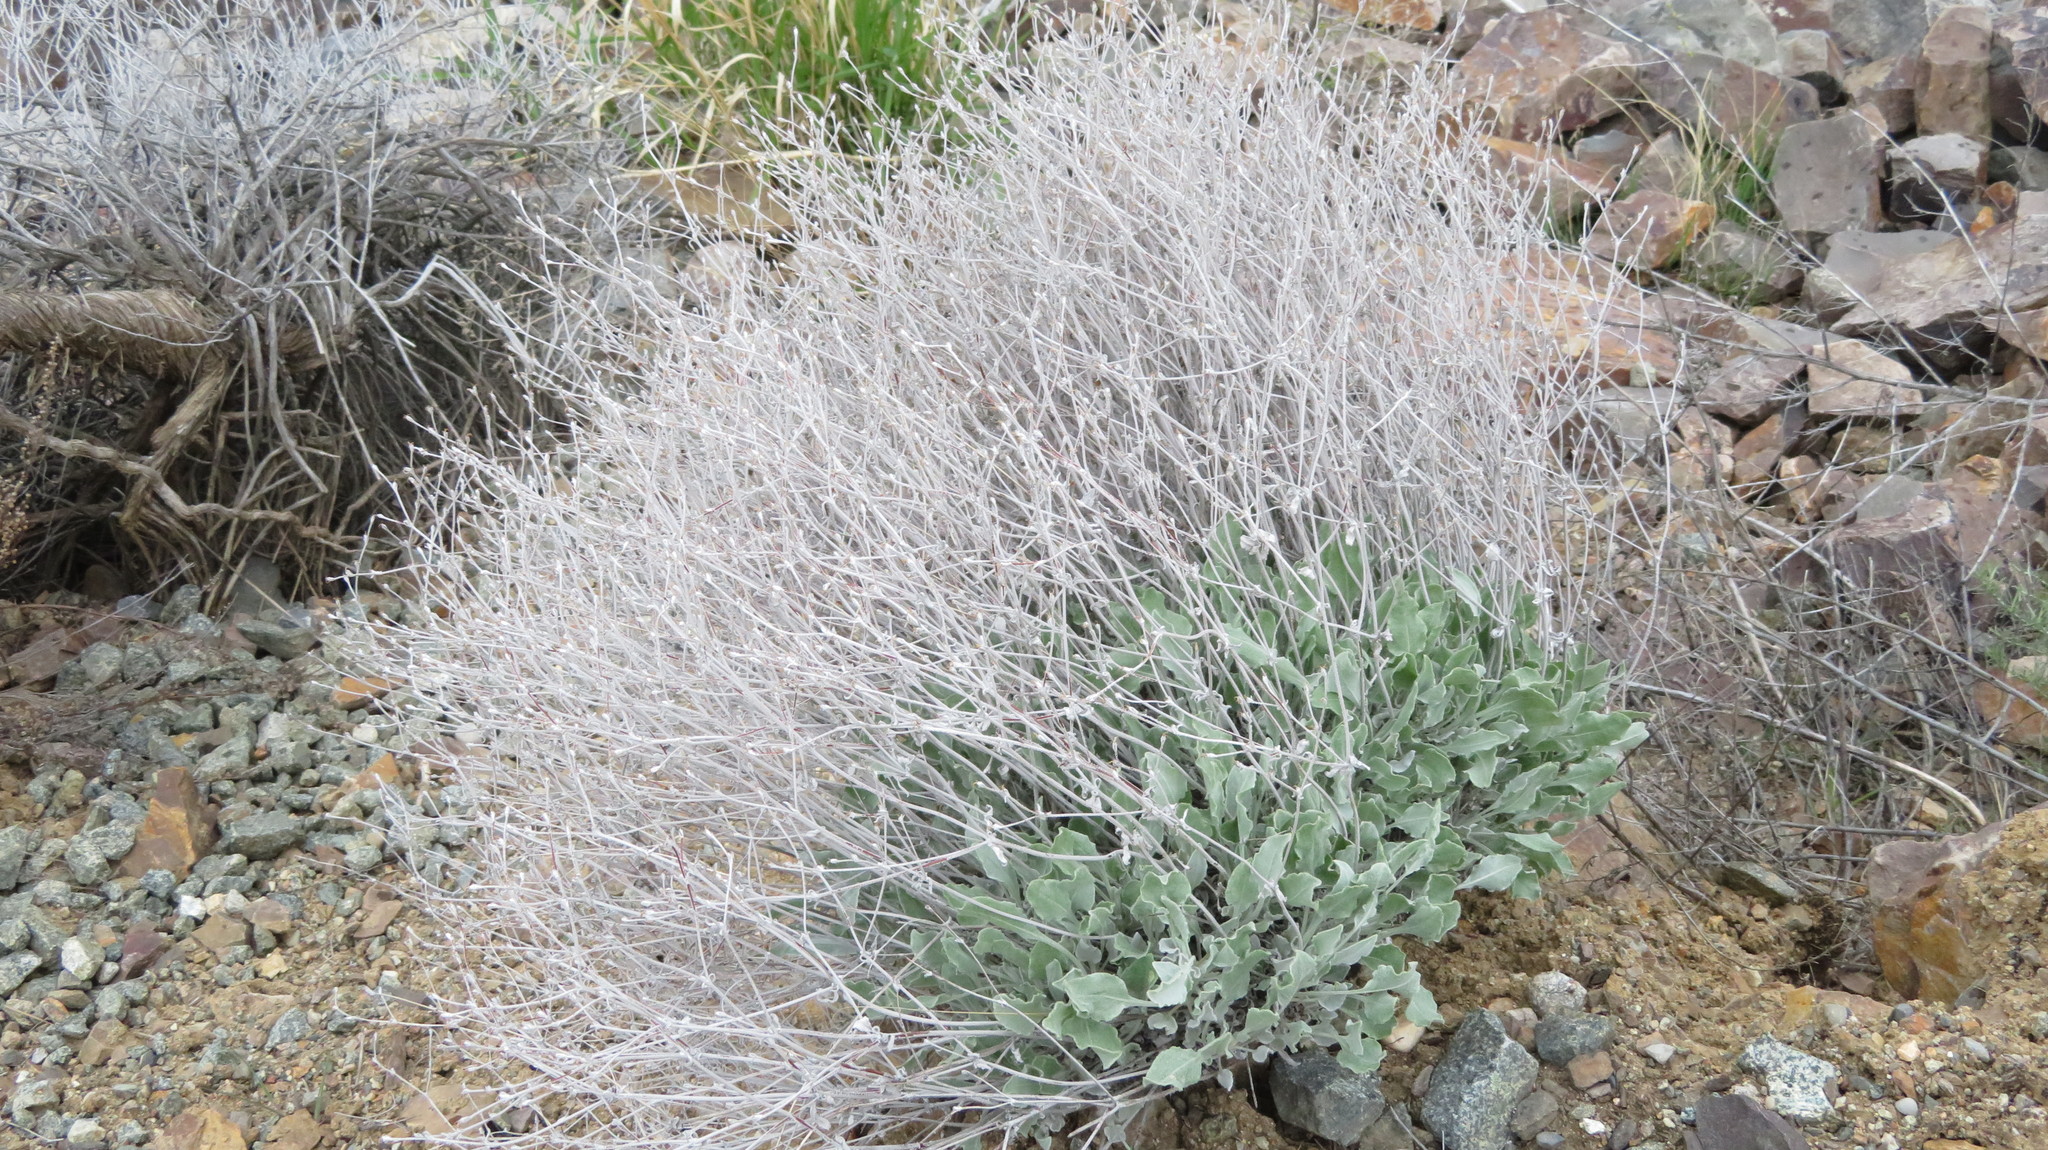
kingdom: Plantae
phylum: Tracheophyta
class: Magnoliopsida
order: Caryophyllales
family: Polygonaceae
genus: Eriogonum
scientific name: Eriogonum niveum
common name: Snow wild buckwheat
